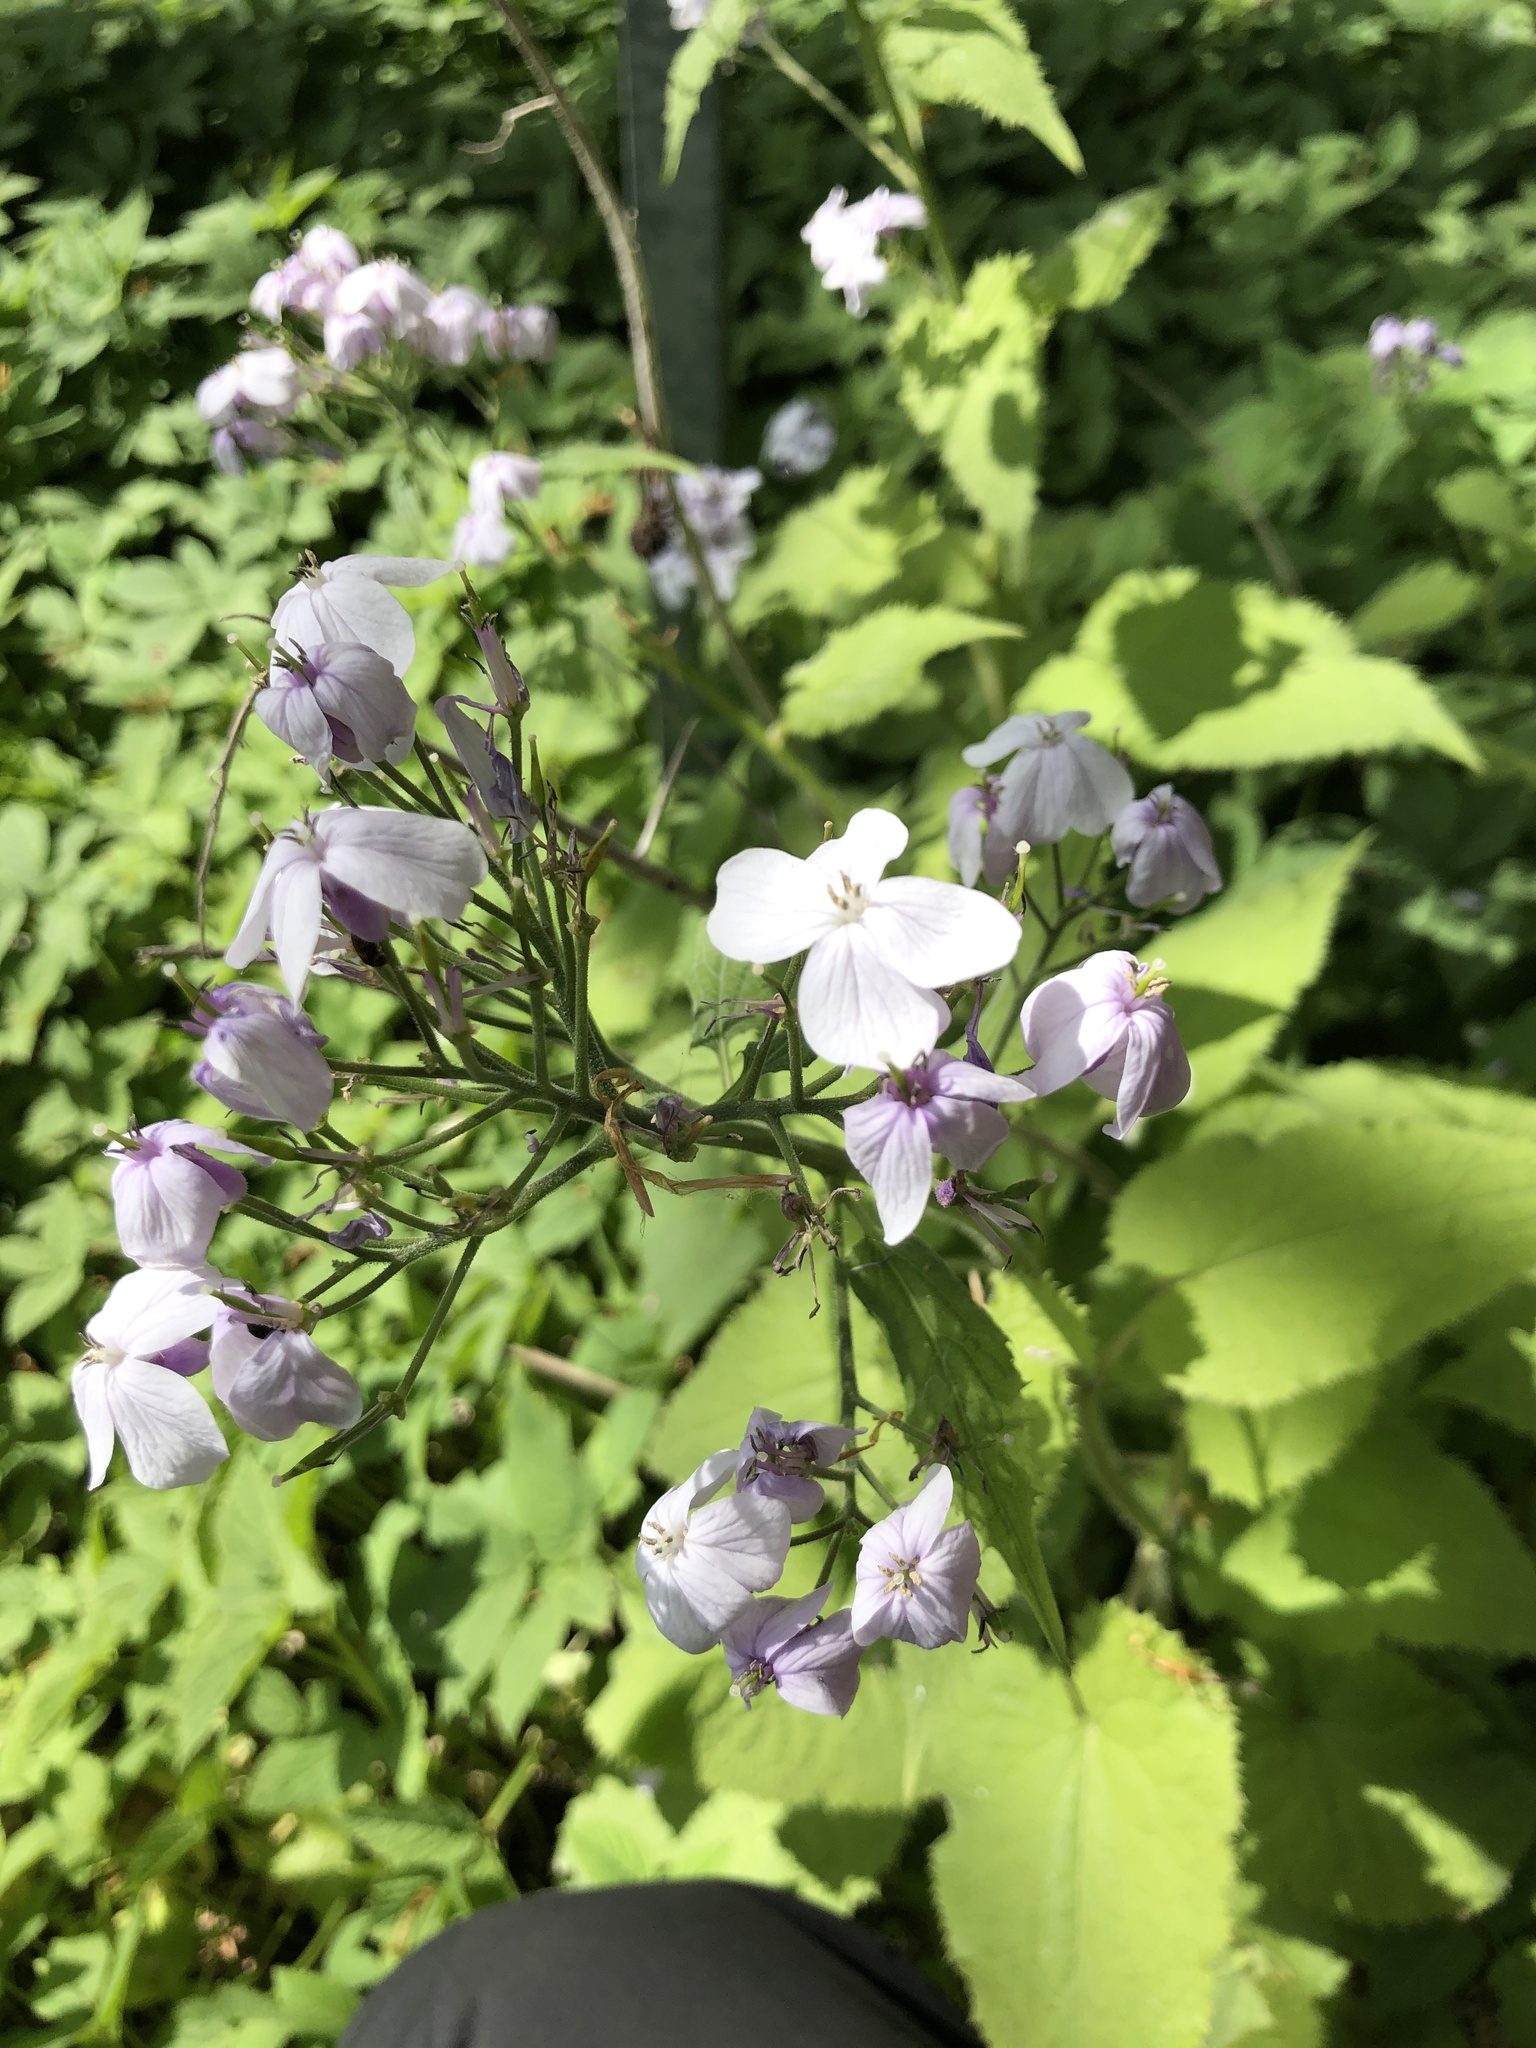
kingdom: Plantae
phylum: Tracheophyta
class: Magnoliopsida
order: Brassicales
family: Brassicaceae
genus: Lunaria
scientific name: Lunaria rediviva
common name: Perennial honesty
